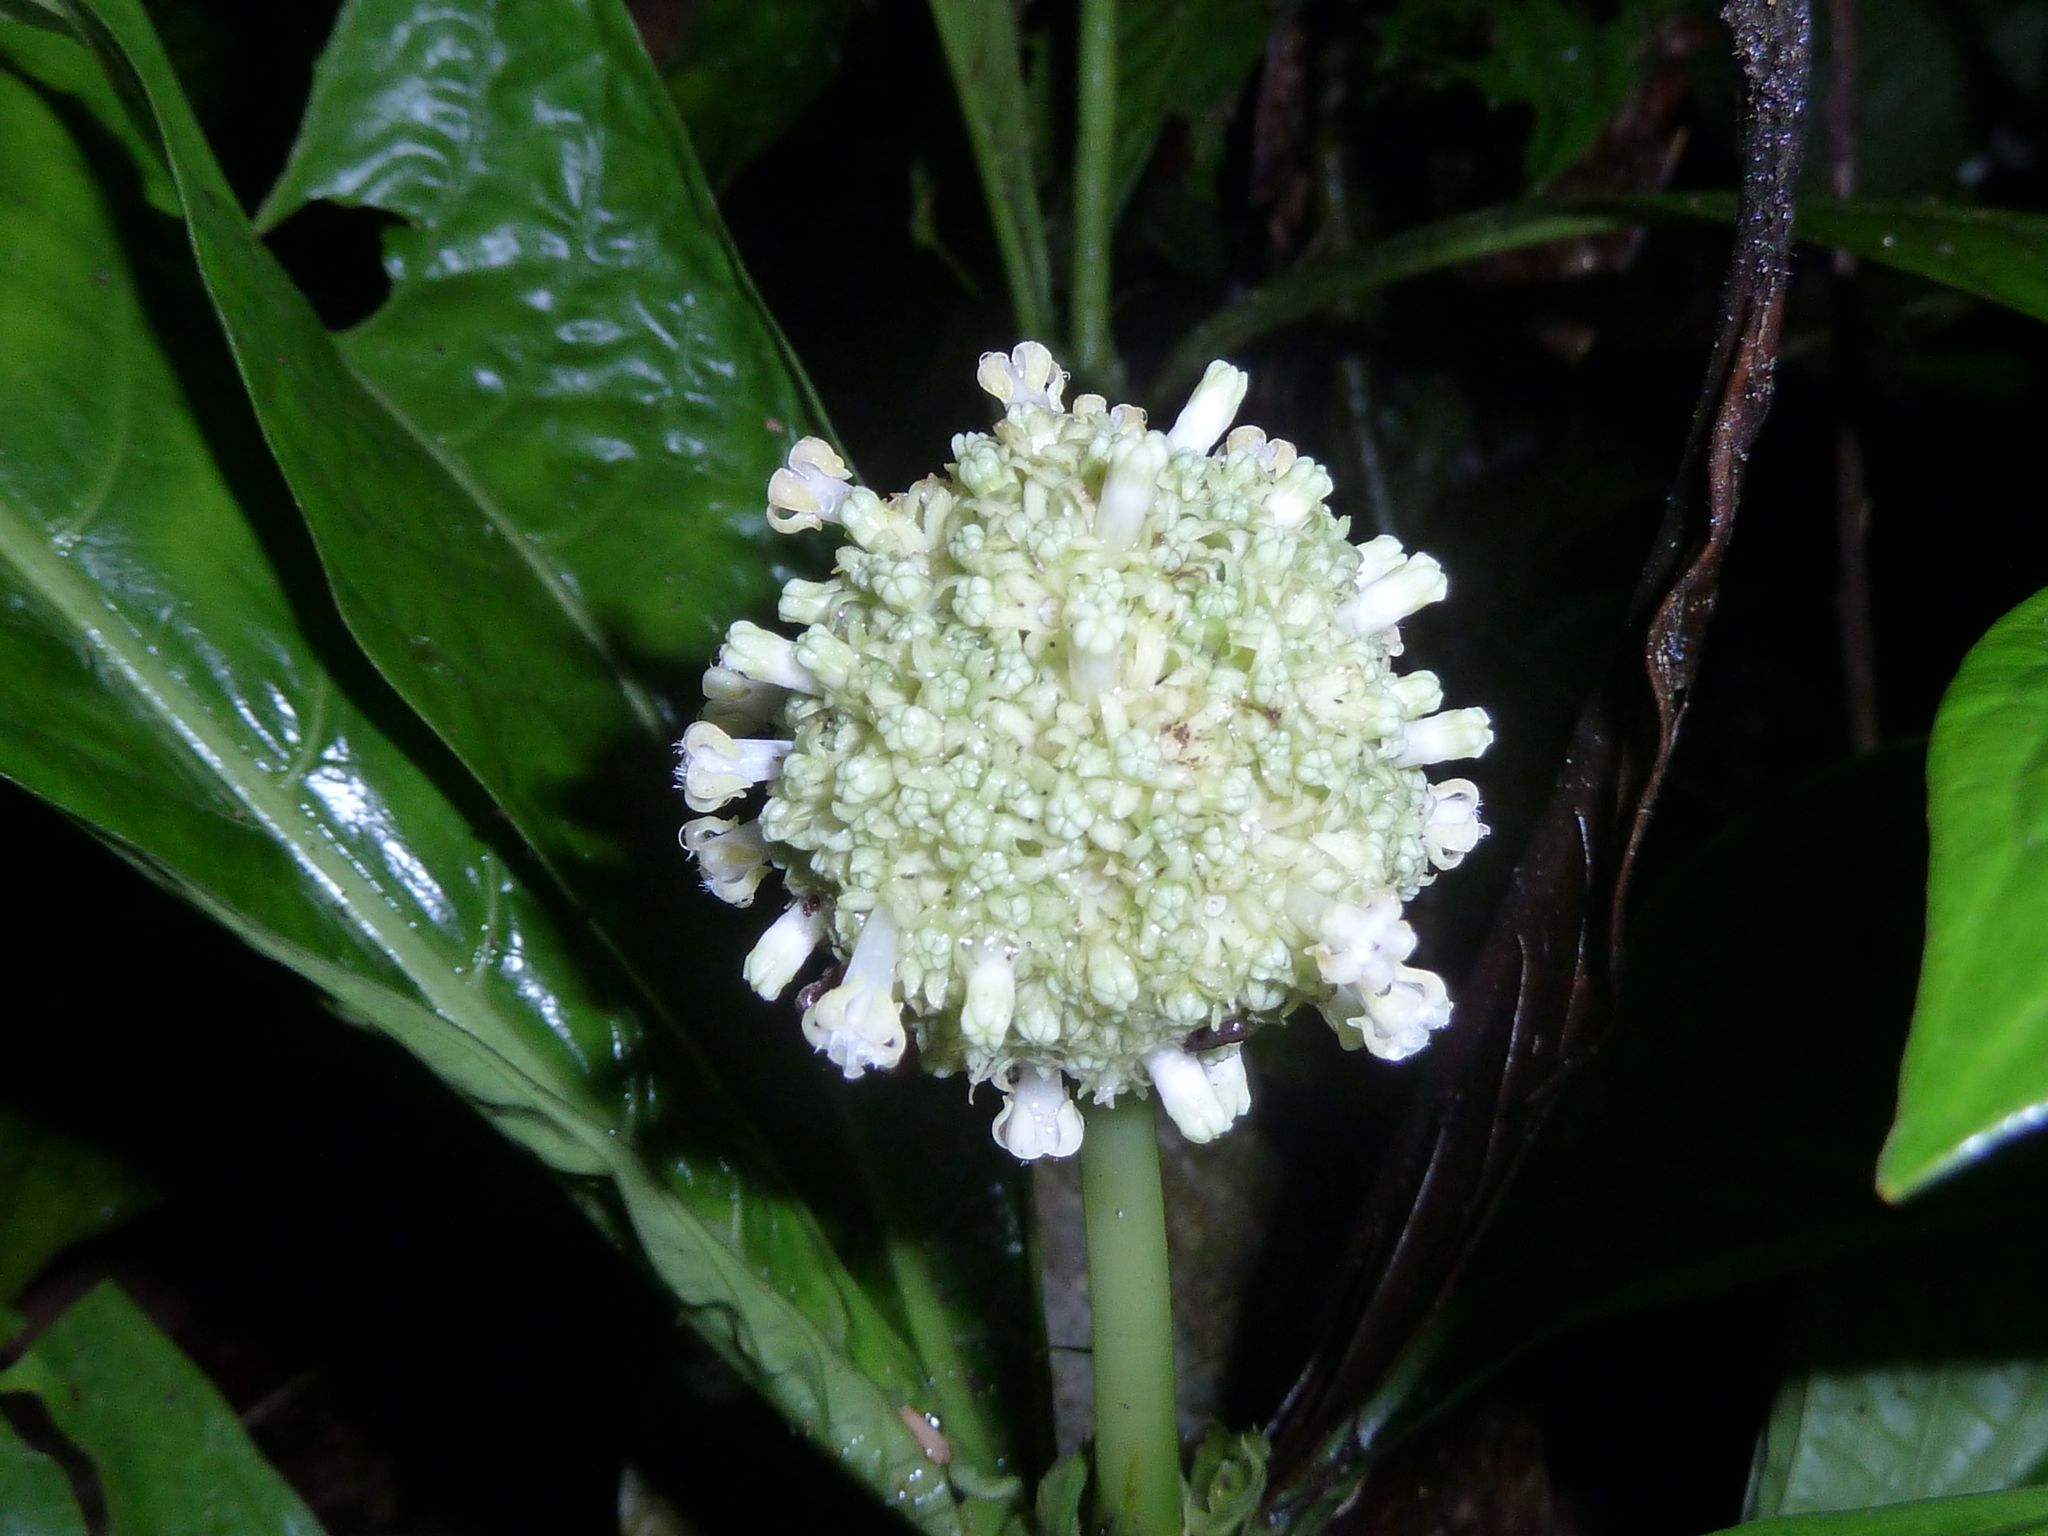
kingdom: Plantae
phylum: Tracheophyta
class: Magnoliopsida
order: Gentianales
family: Rubiaceae
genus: Psychotria
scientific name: Psychotria alfaroana
